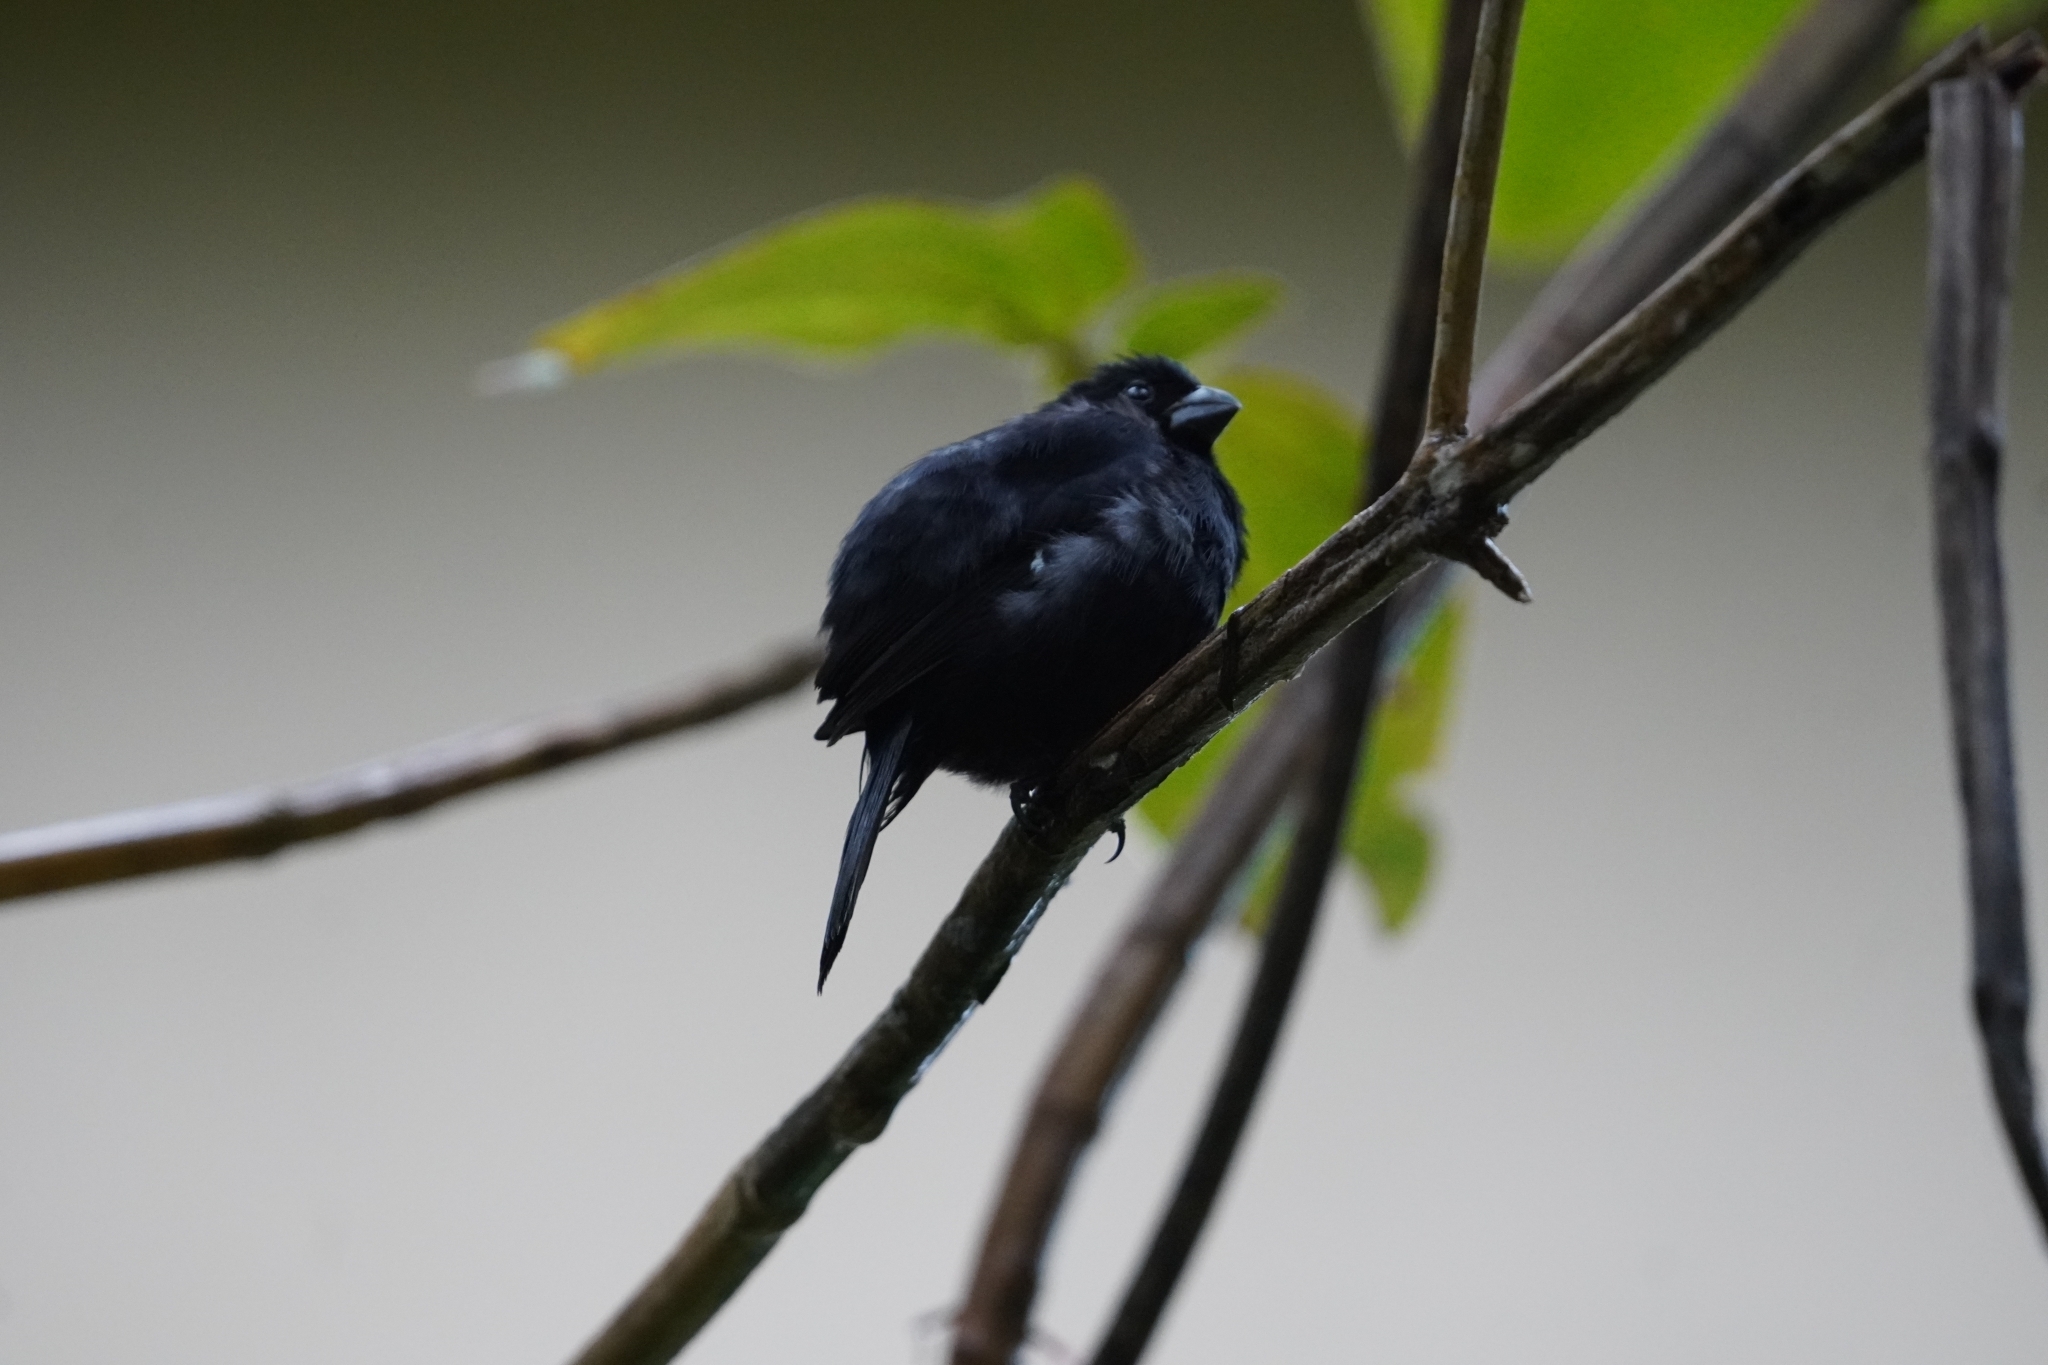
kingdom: Animalia
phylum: Chordata
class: Aves
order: Passeriformes
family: Thraupidae
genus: Sporophila
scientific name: Sporophila corvina
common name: Variable seedeater
